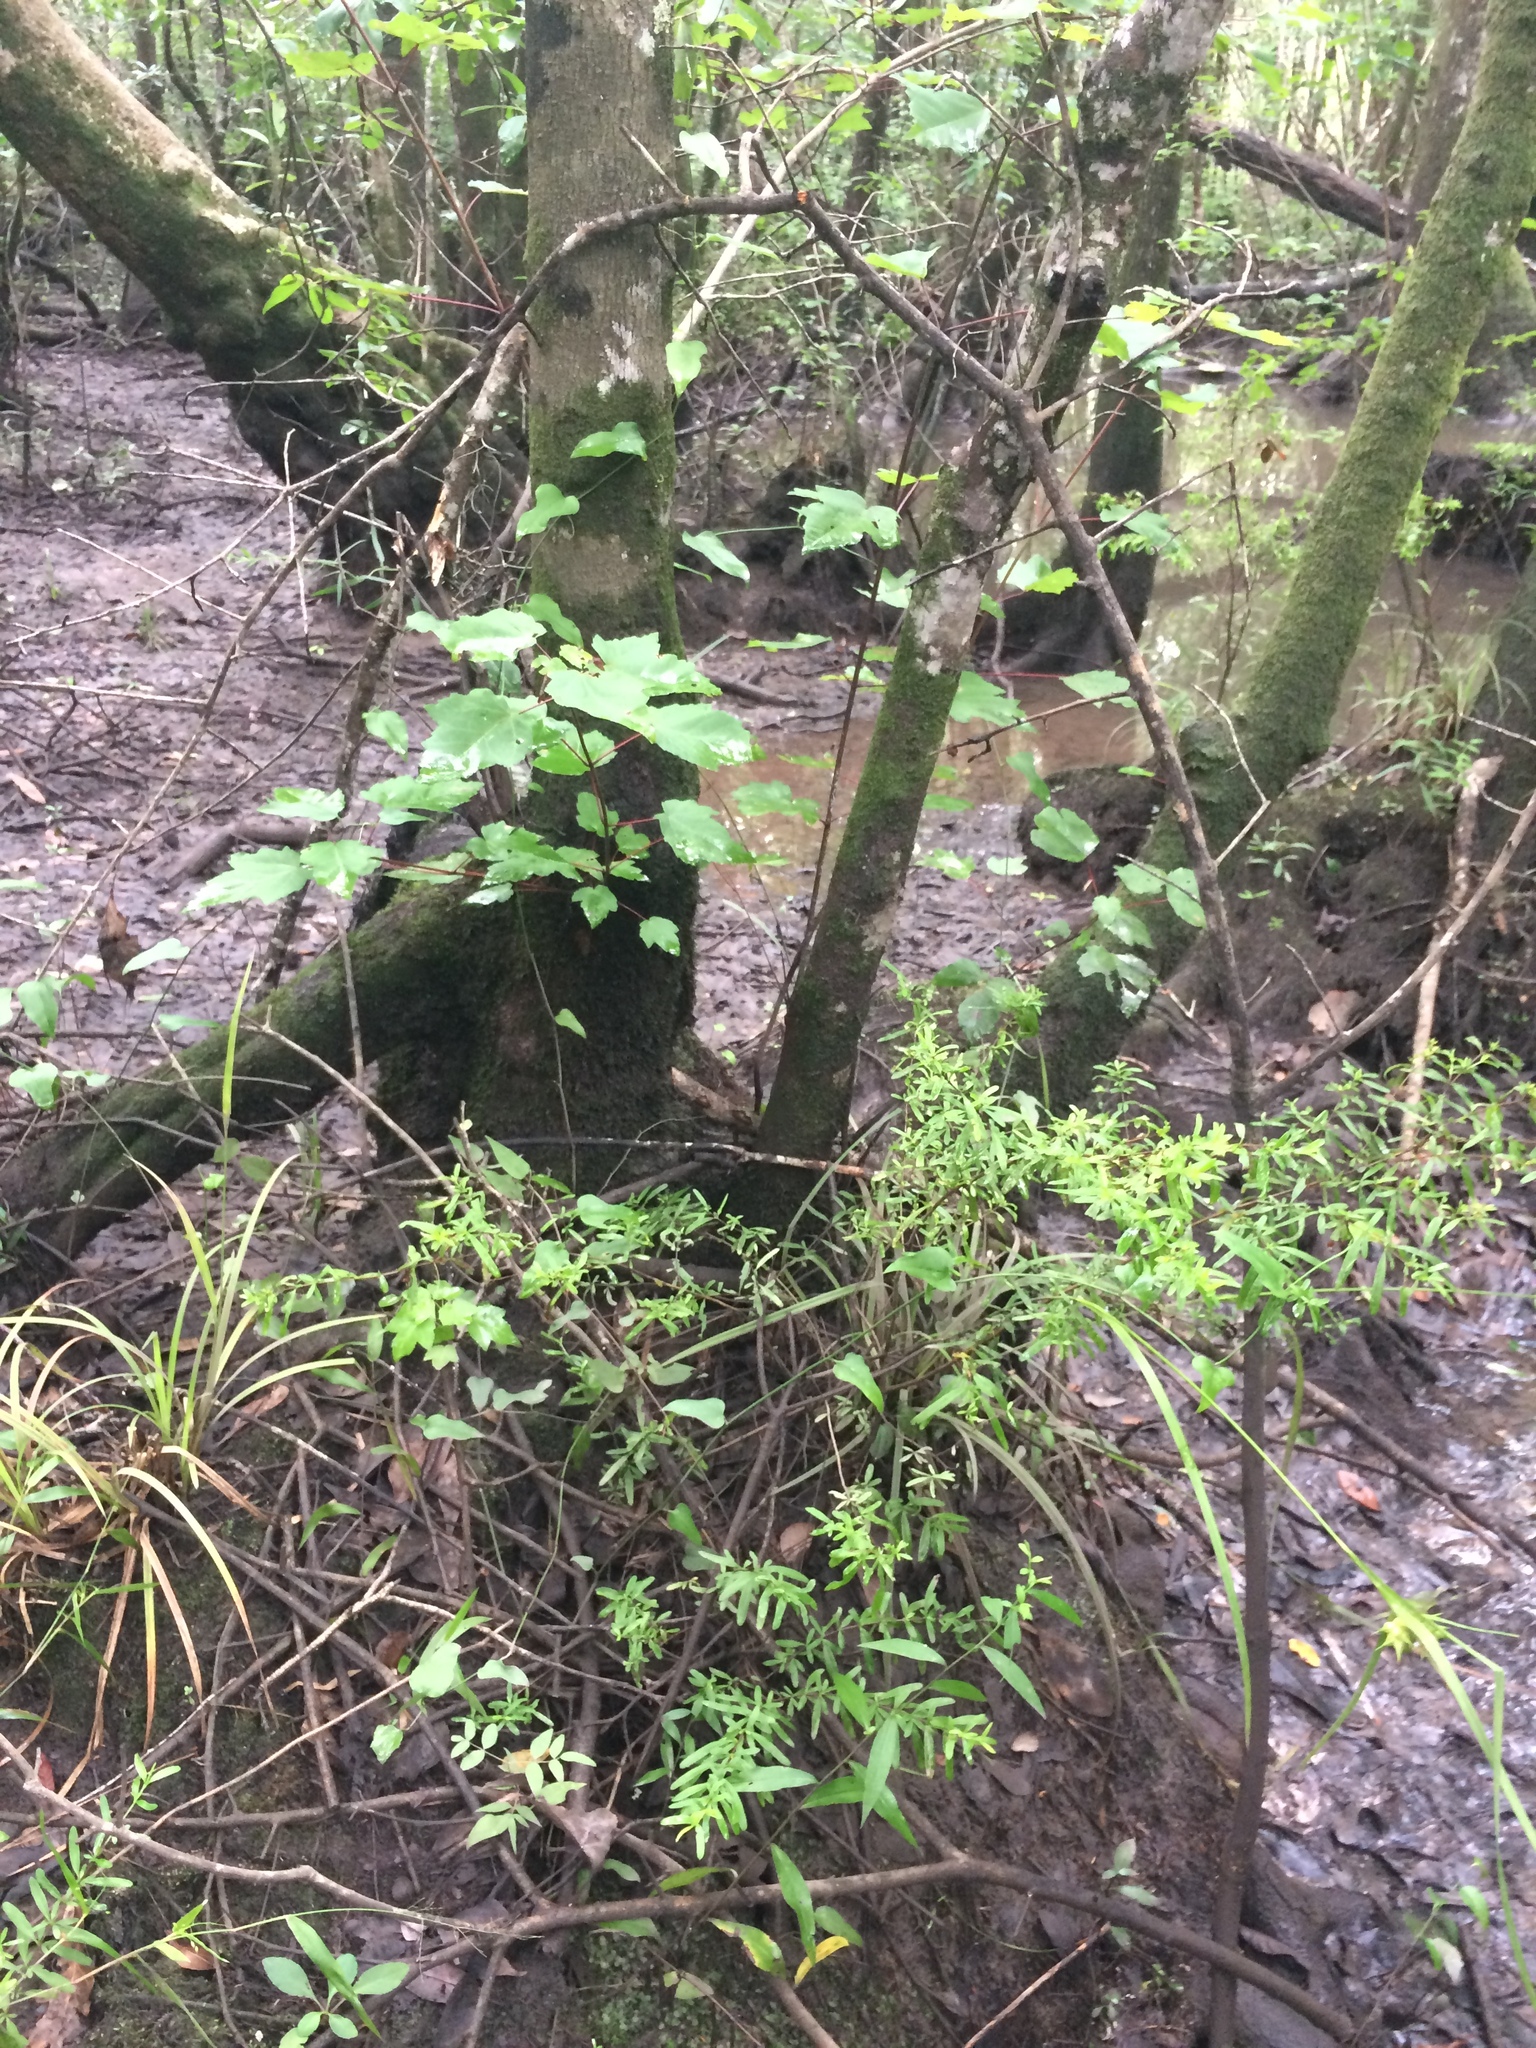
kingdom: Plantae
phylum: Tracheophyta
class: Liliopsida
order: Poales
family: Cyperaceae
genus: Carex
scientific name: Carex intumescens
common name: Greater bladder sedge
